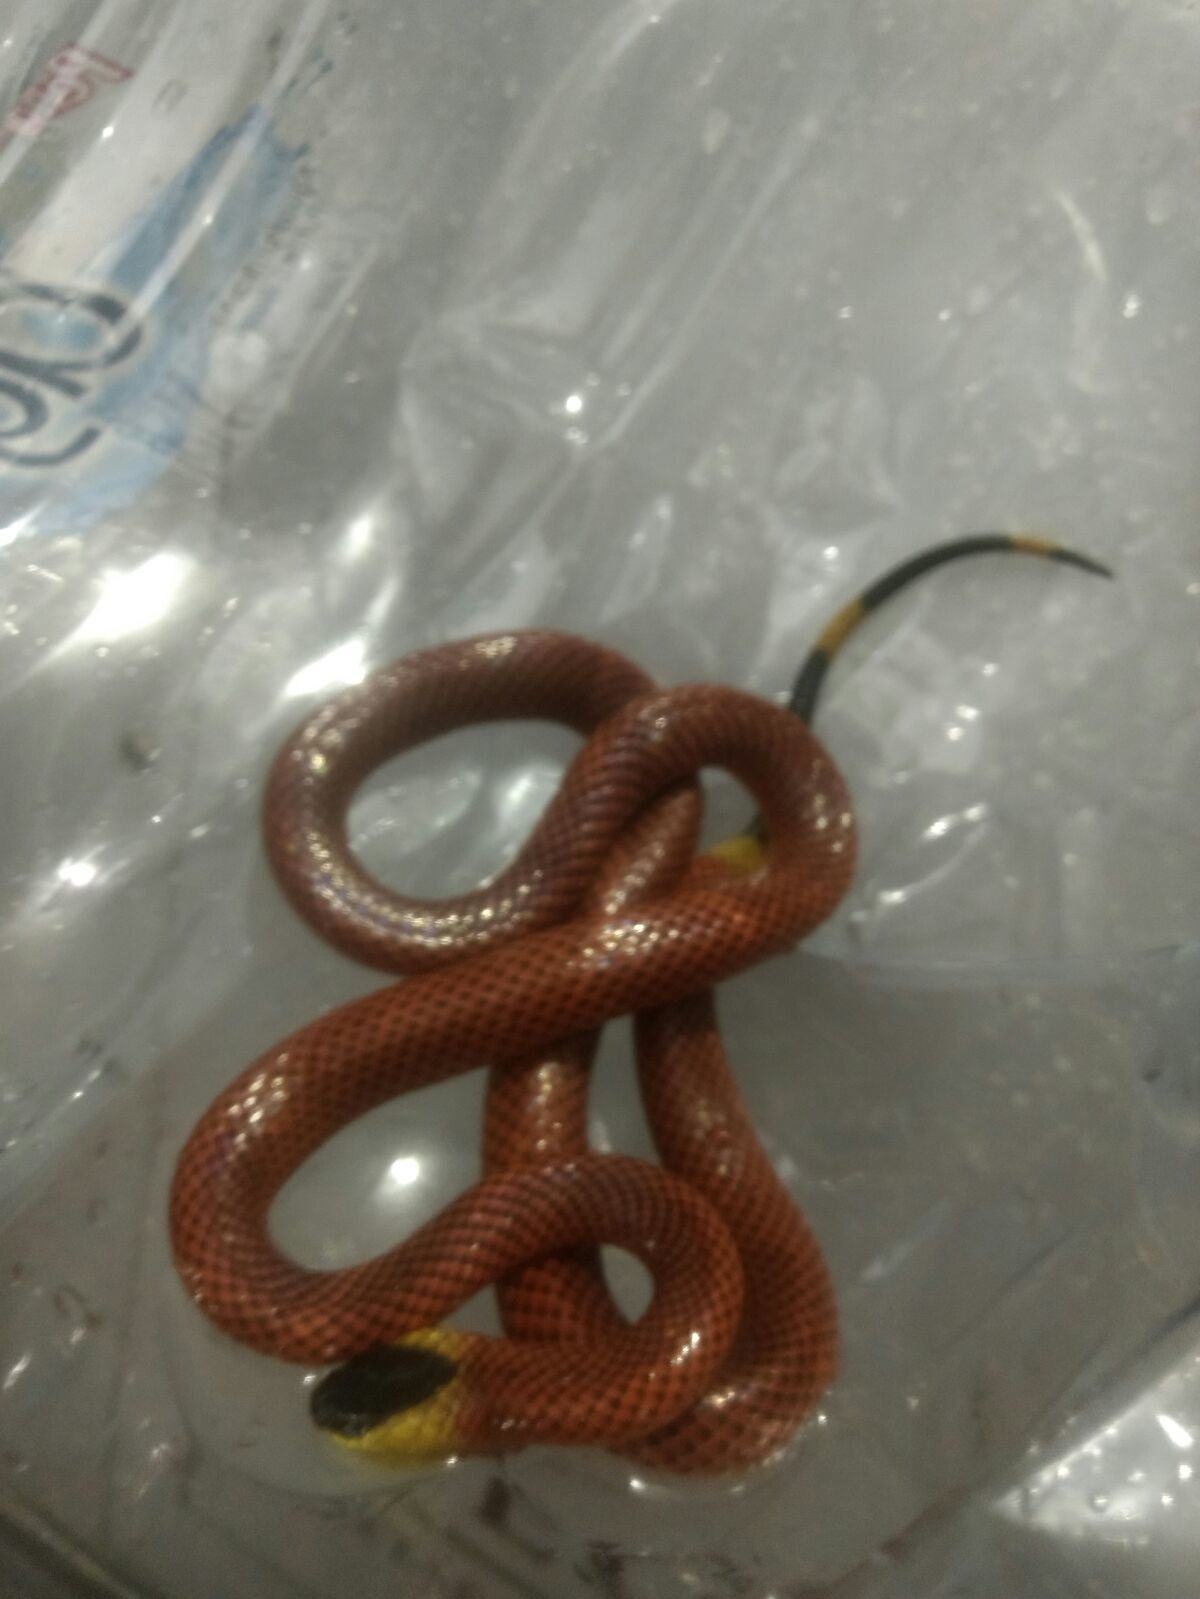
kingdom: Animalia
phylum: Chordata
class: Squamata
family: Elapidae
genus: Micrurus
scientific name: Micrurus diastema
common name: Diastema coral snake
